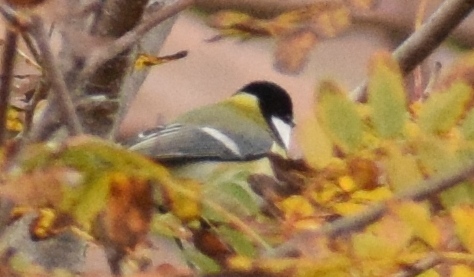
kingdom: Animalia
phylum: Chordata
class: Aves
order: Passeriformes
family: Paridae
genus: Parus
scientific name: Parus major
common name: Great tit
